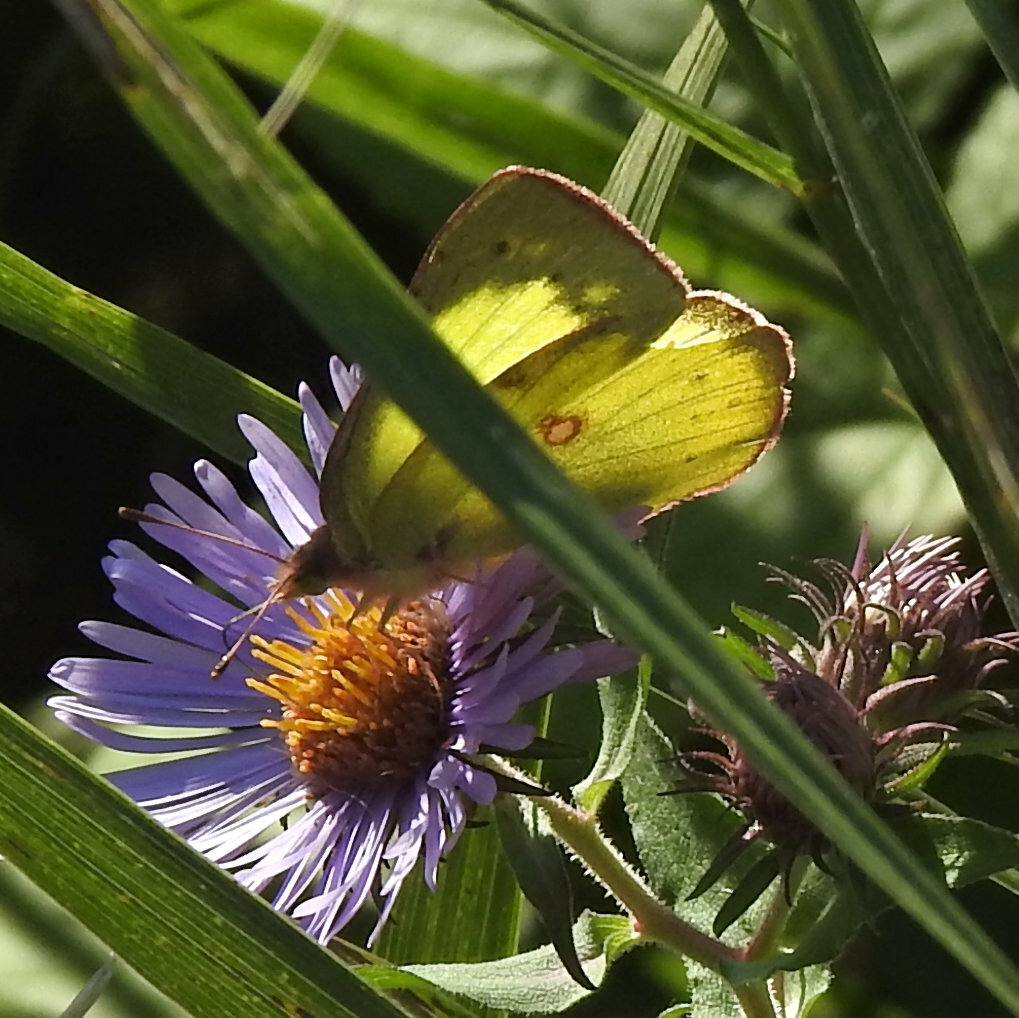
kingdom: Animalia
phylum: Arthropoda
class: Insecta
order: Lepidoptera
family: Pieridae
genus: Colias
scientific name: Colias philodice
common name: Clouded sulphur
